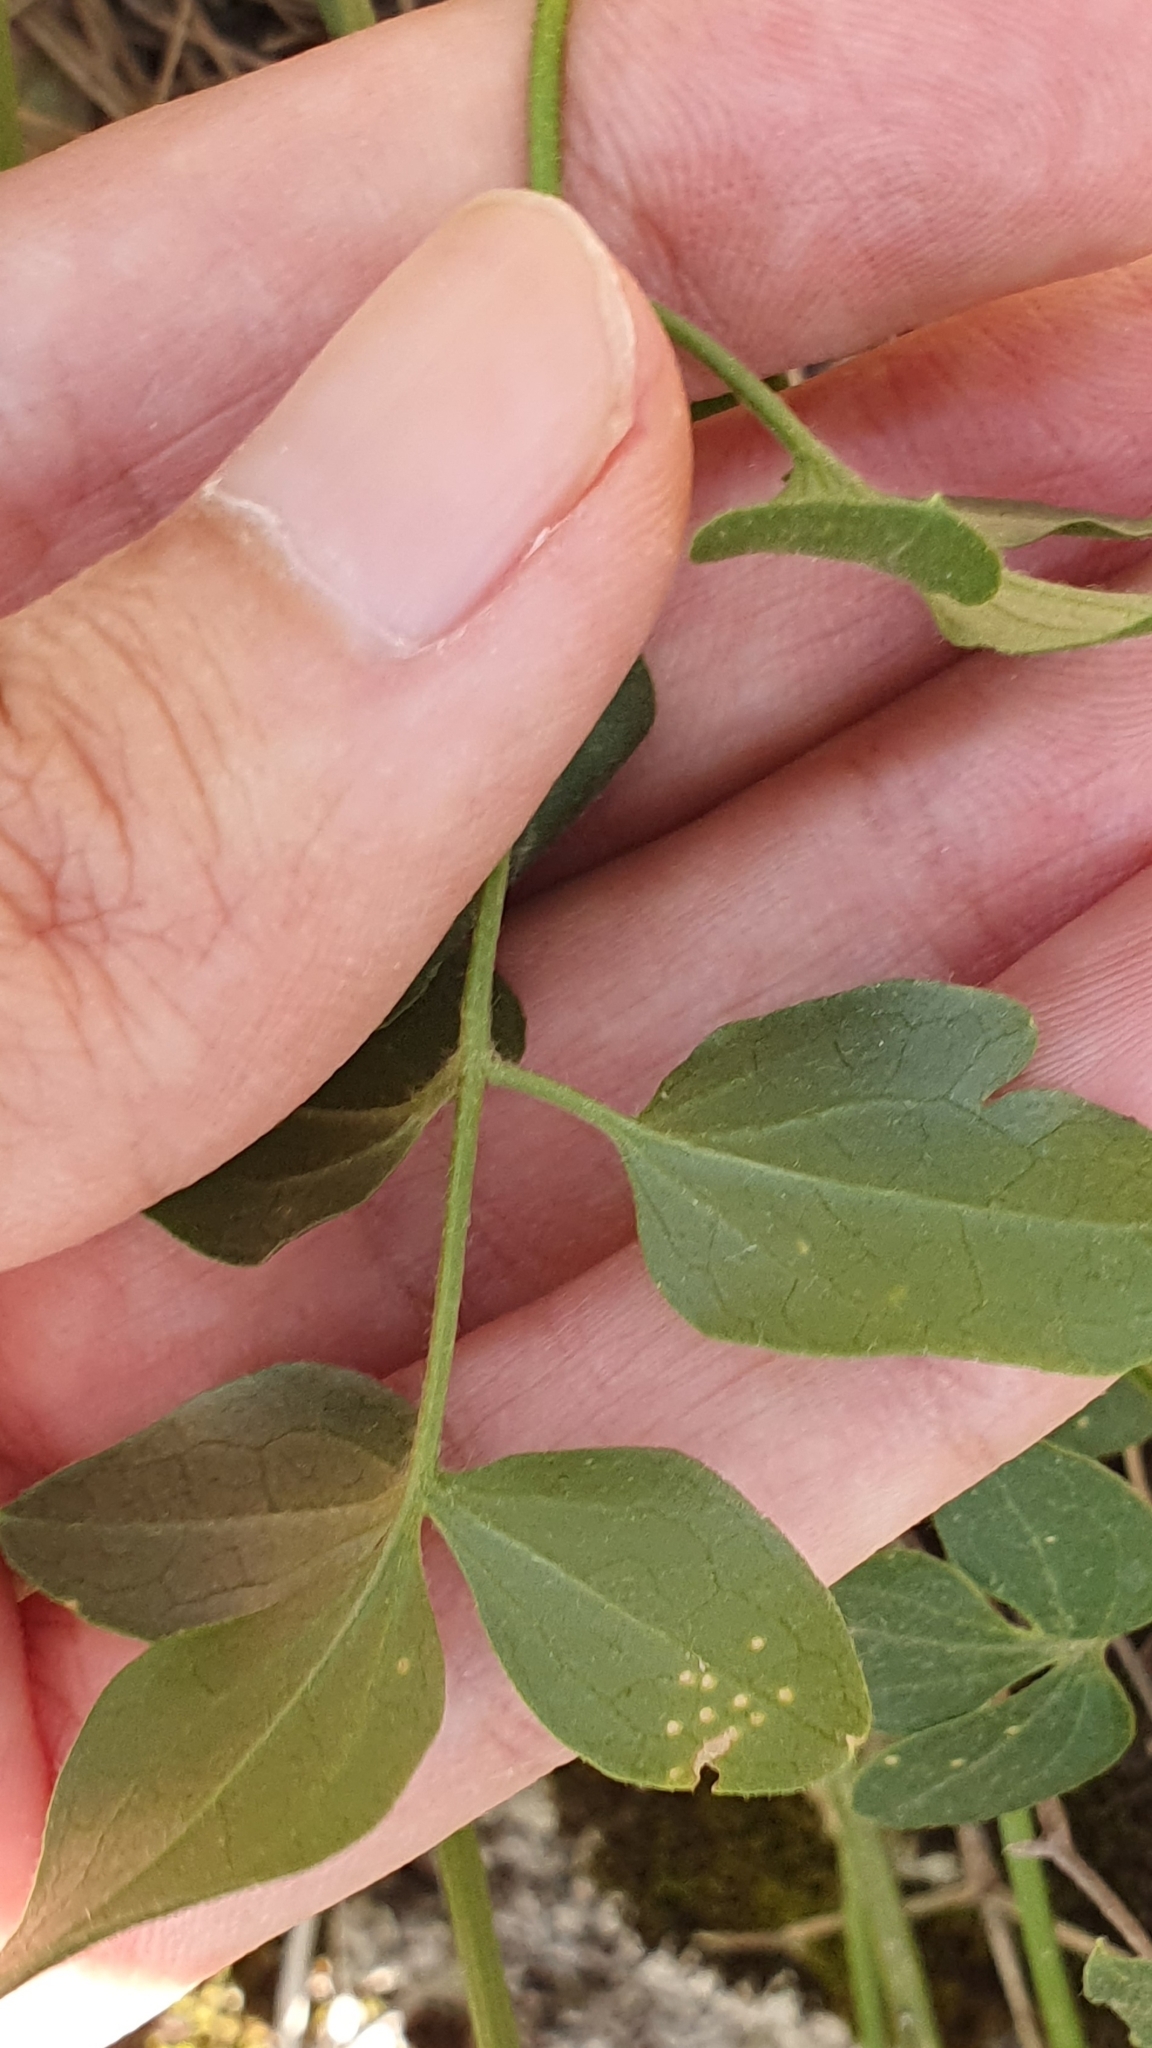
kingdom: Plantae
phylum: Tracheophyta
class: Magnoliopsida
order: Ranunculales
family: Ranunculaceae
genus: Clematis
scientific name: Clematis flammula
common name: Virgin's-bower
